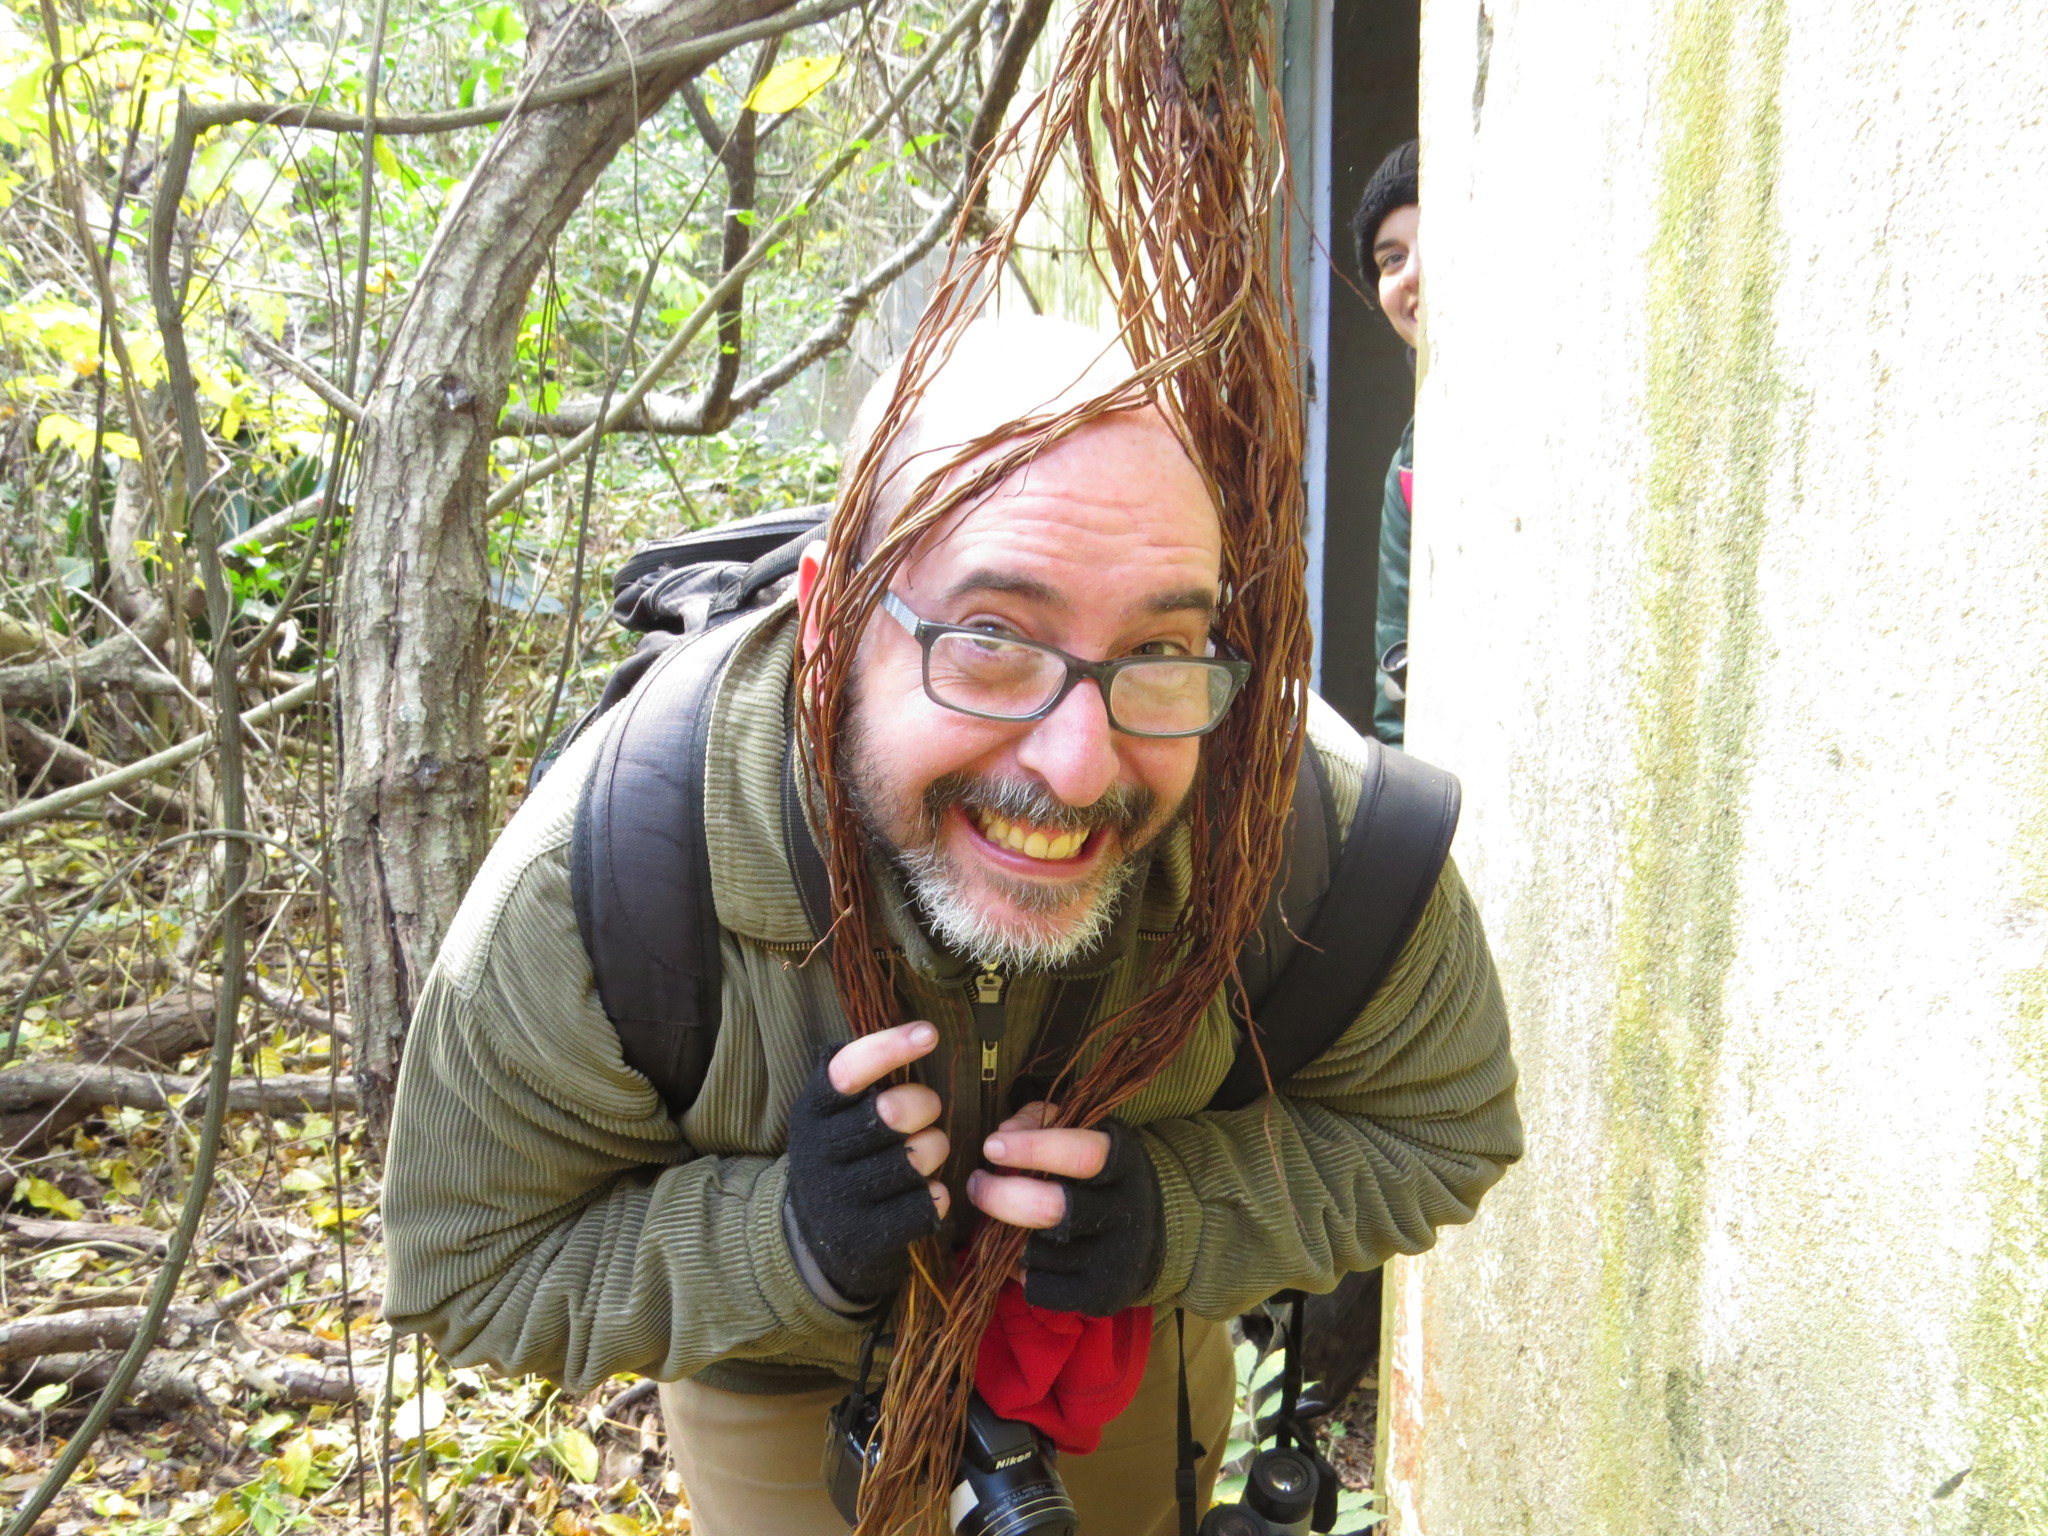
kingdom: Plantae
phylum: Tracheophyta
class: Magnoliopsida
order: Rosales
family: Moraceae
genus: Ficus
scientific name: Ficus luschnathiana
